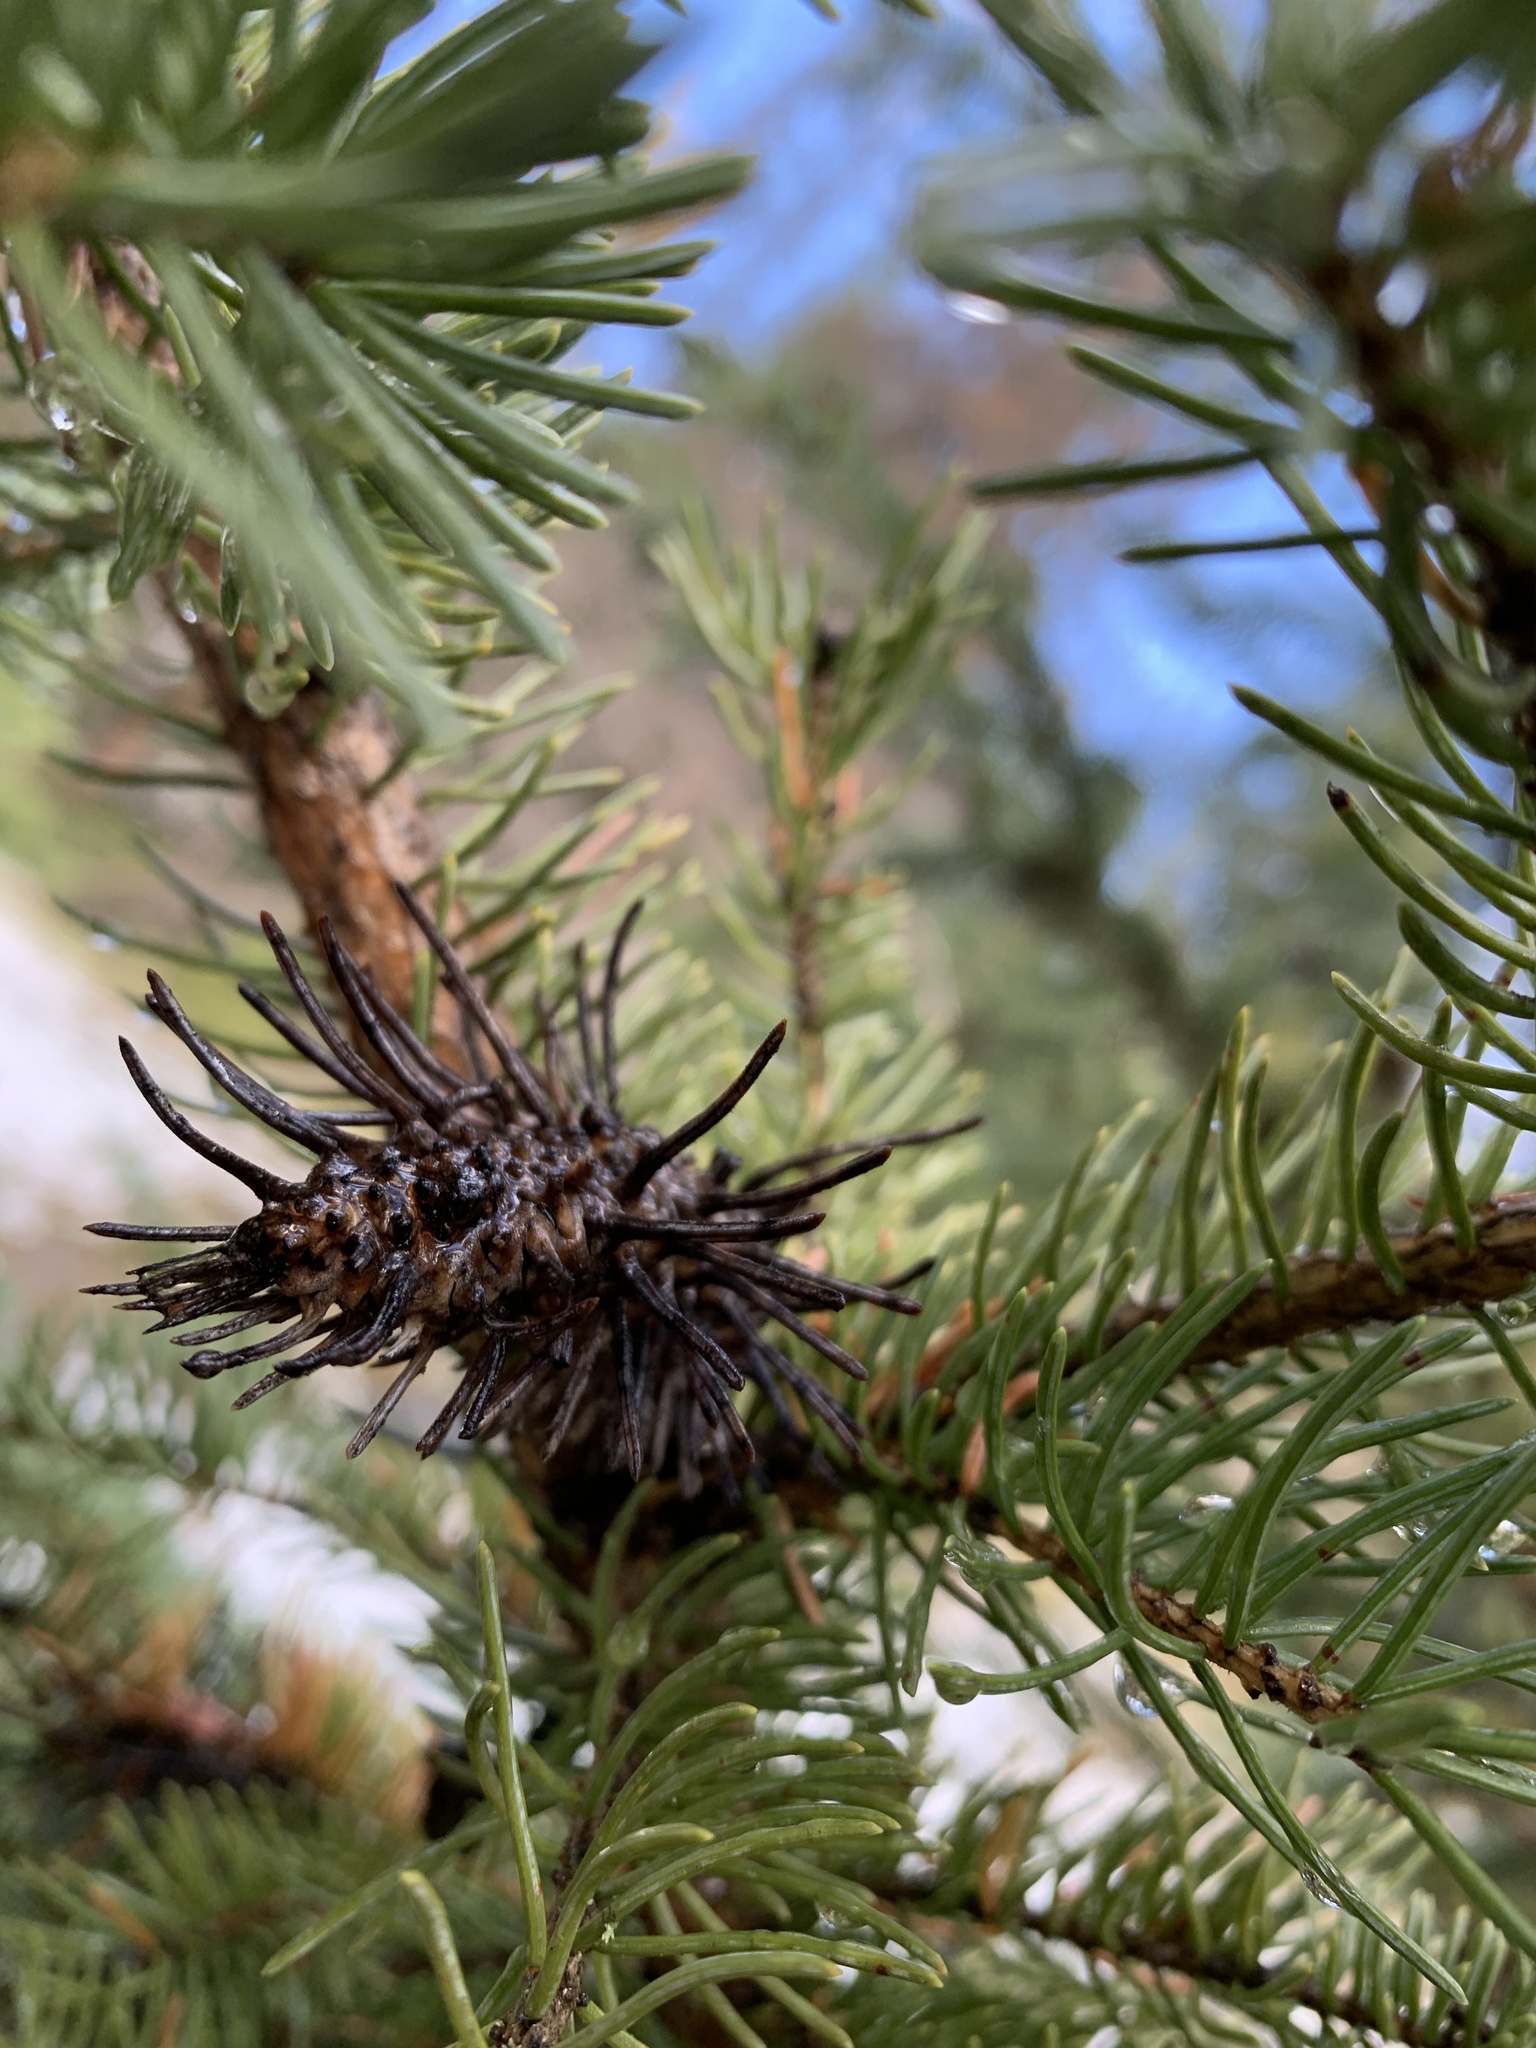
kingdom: Animalia
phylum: Arthropoda
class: Insecta
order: Hemiptera
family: Adelgidae
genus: Adelges
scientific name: Adelges cooleyi
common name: Cooley spruce gall adelgid
